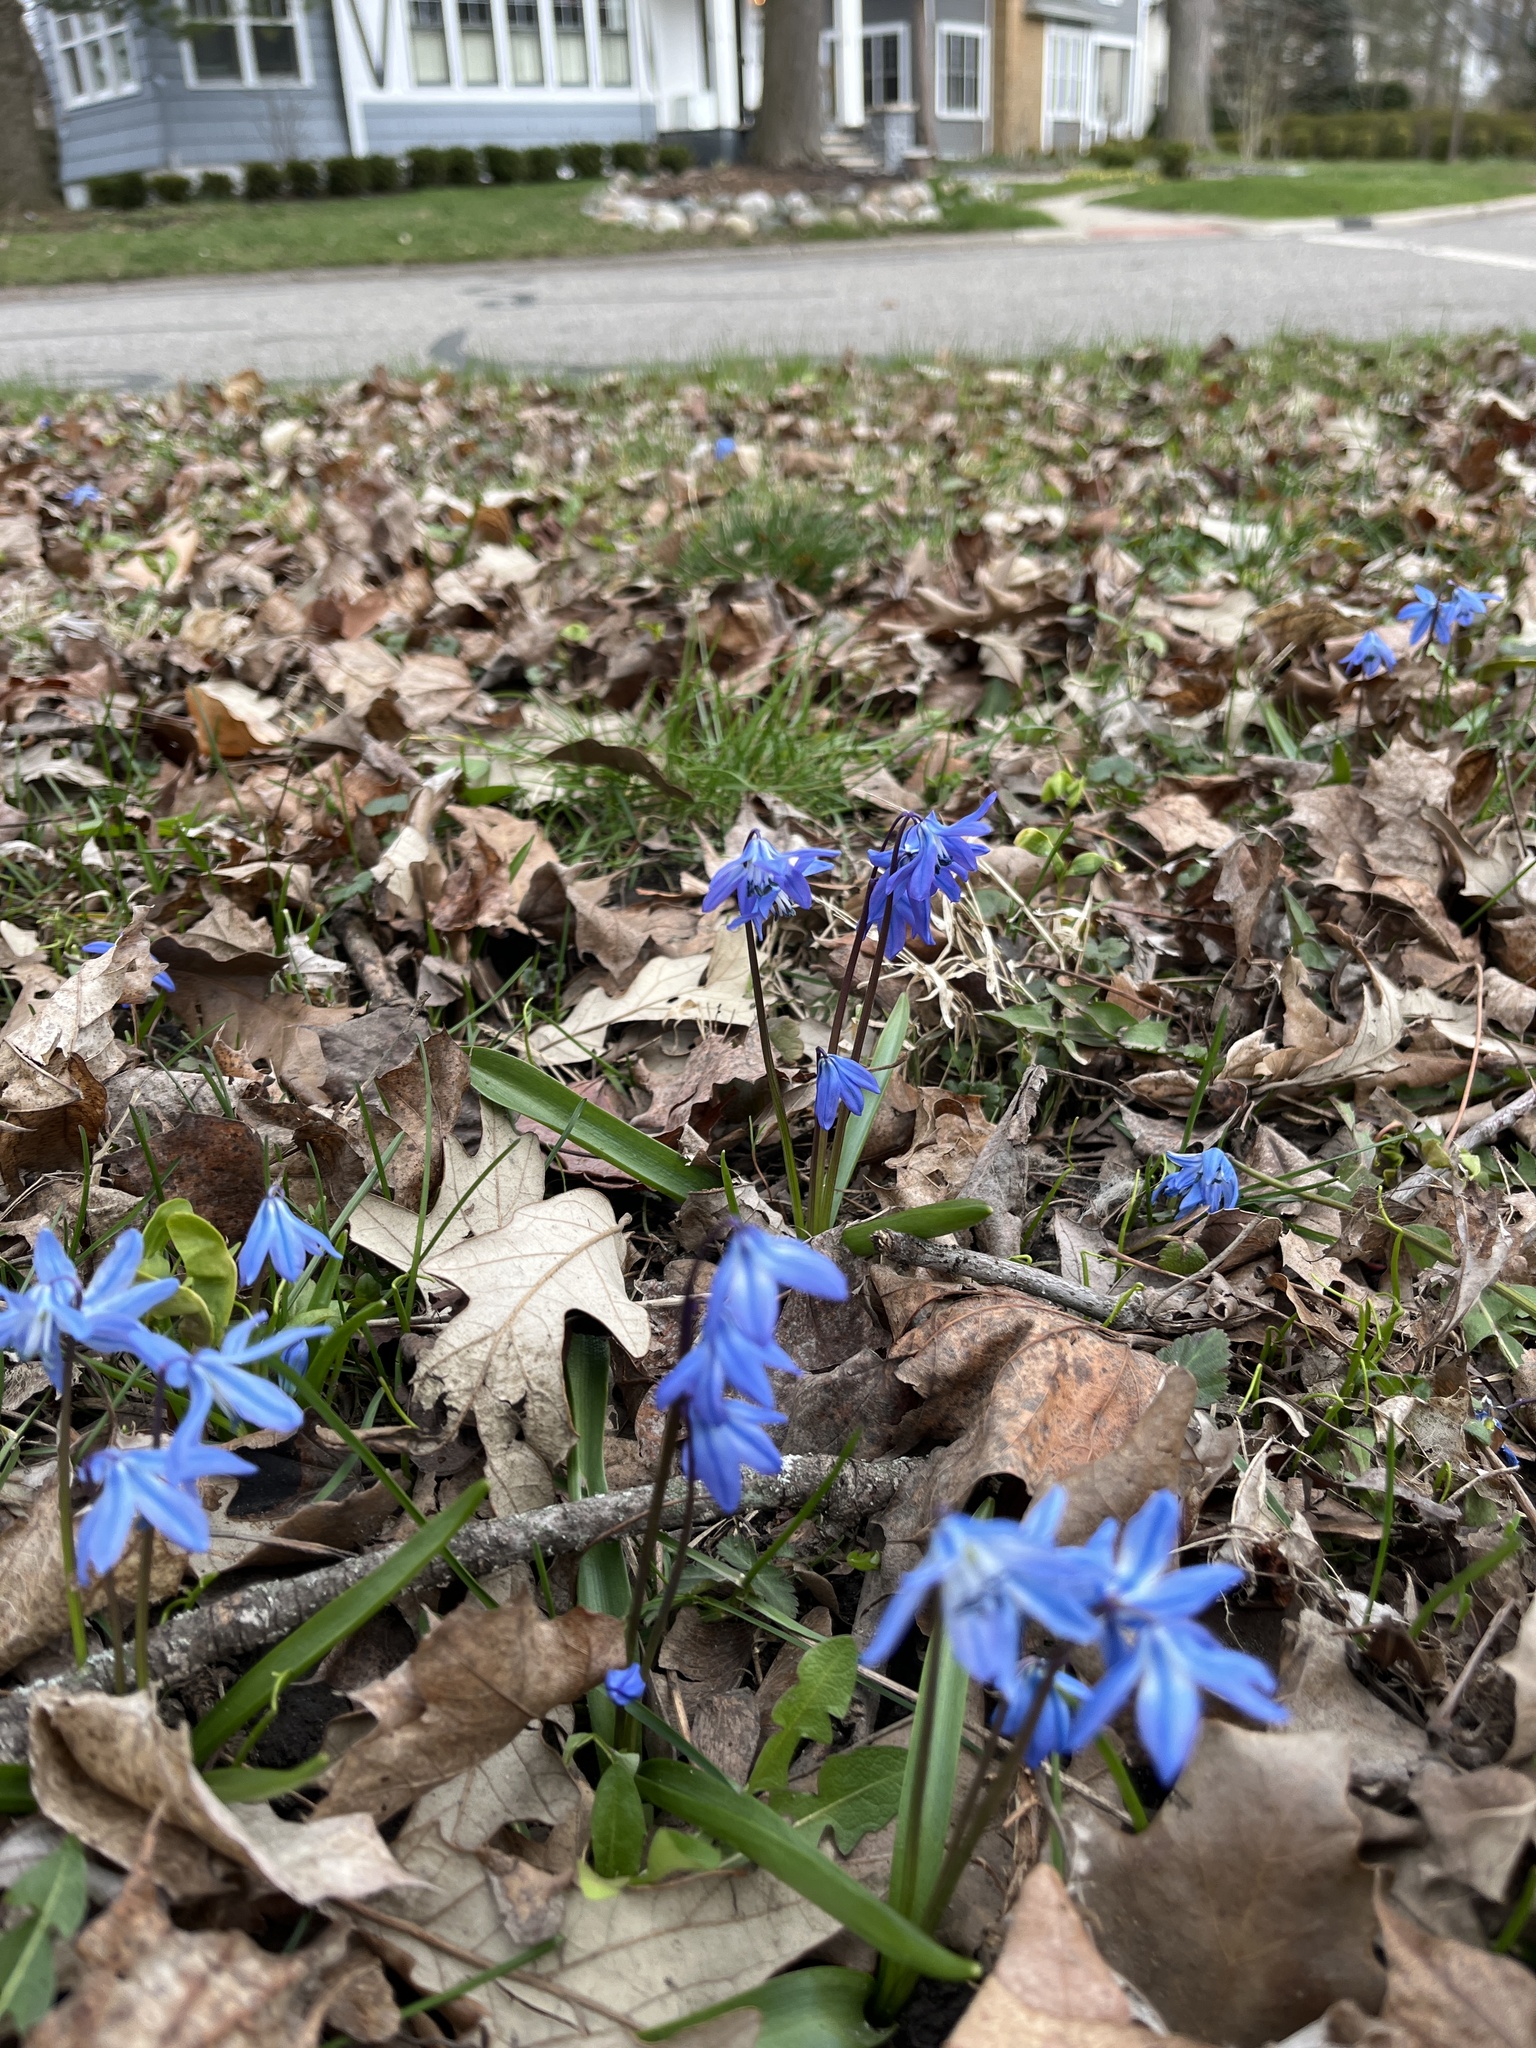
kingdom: Plantae
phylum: Tracheophyta
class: Liliopsida
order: Asparagales
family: Asparagaceae
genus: Scilla
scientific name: Scilla siberica
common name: Siberian squill
